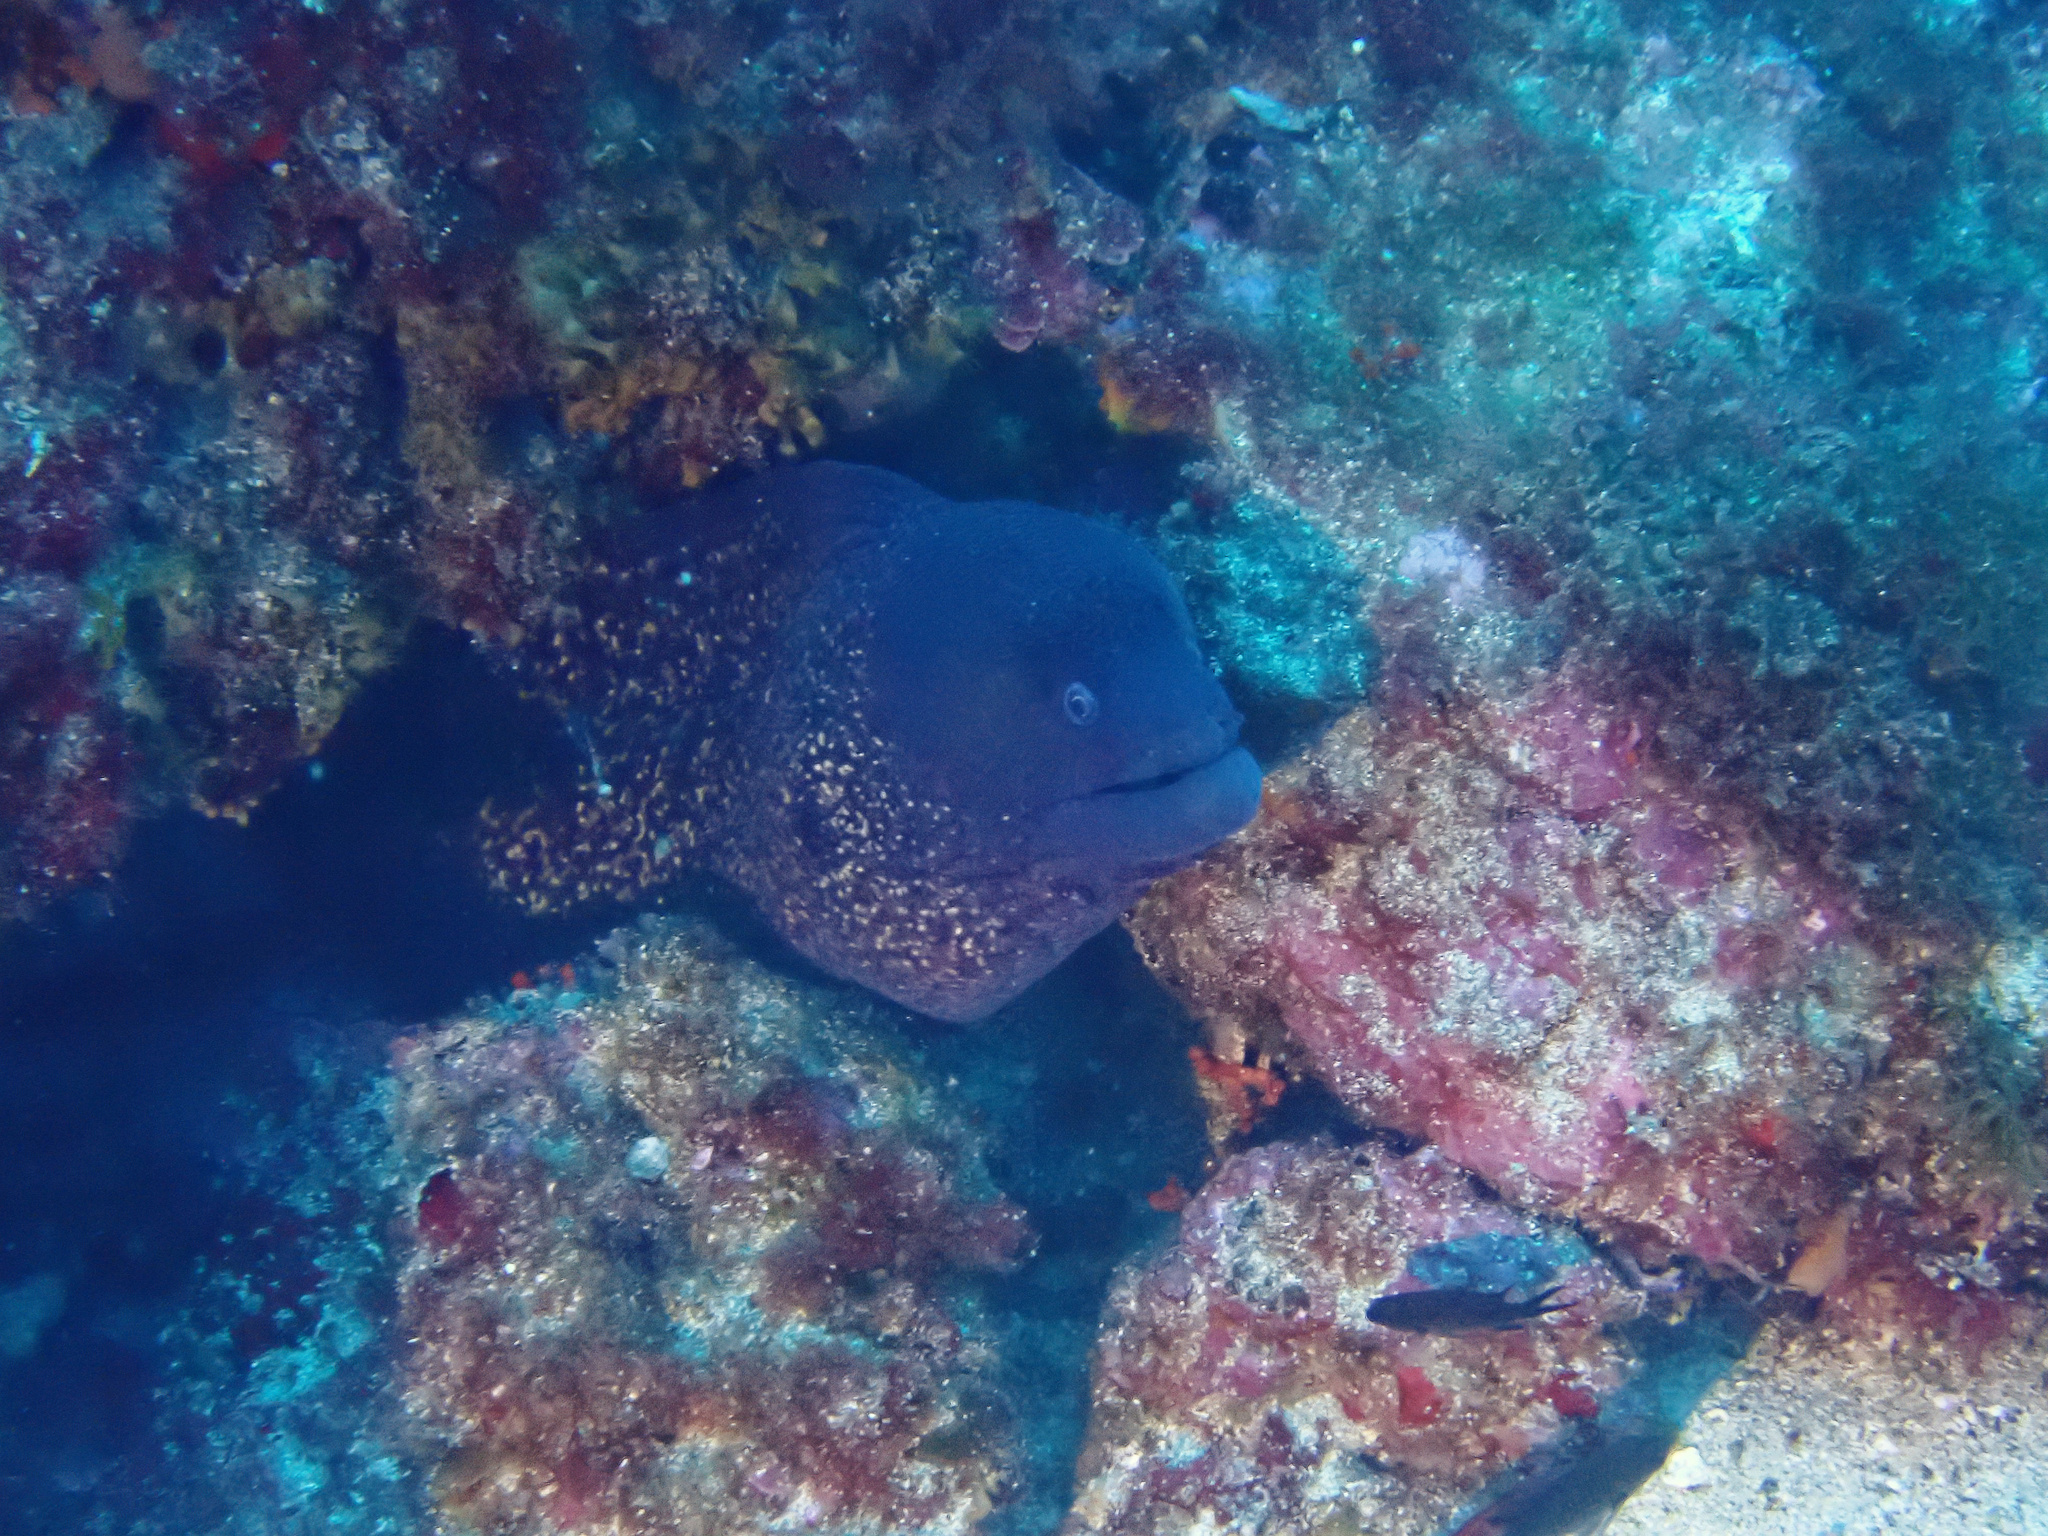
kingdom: Animalia
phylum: Chordata
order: Anguilliformes
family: Muraenidae
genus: Muraena
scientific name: Muraena helena
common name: Mediterranean moray
